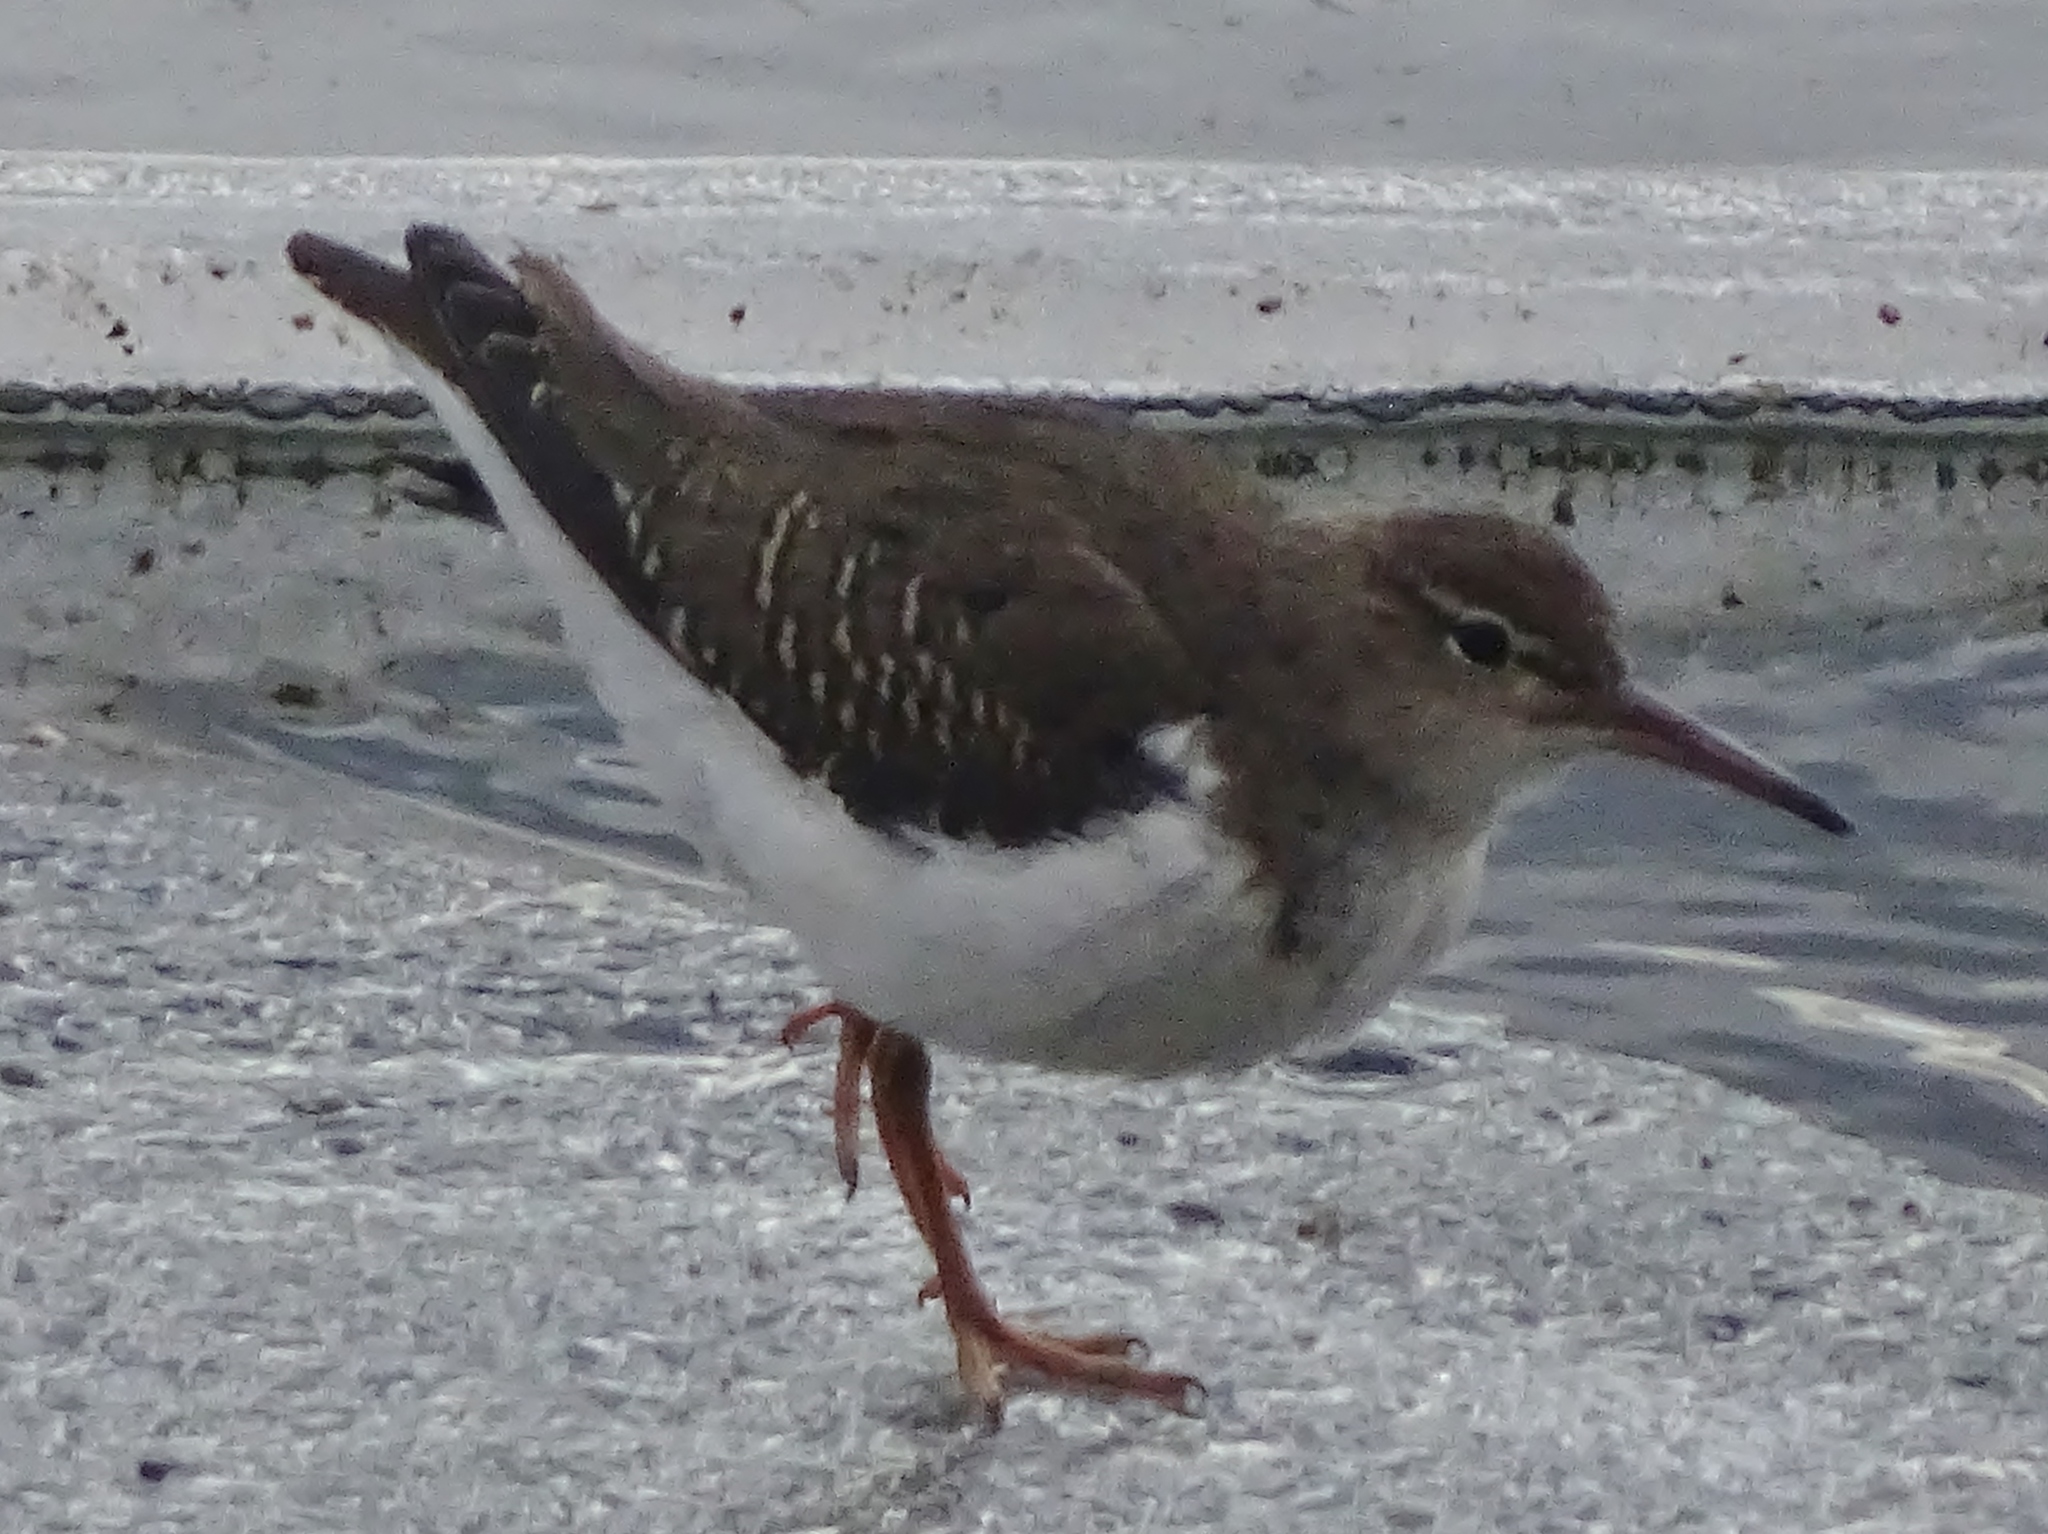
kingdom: Animalia
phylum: Chordata
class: Aves
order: Charadriiformes
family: Scolopacidae
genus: Actitis
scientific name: Actitis macularius
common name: Spotted sandpiper
